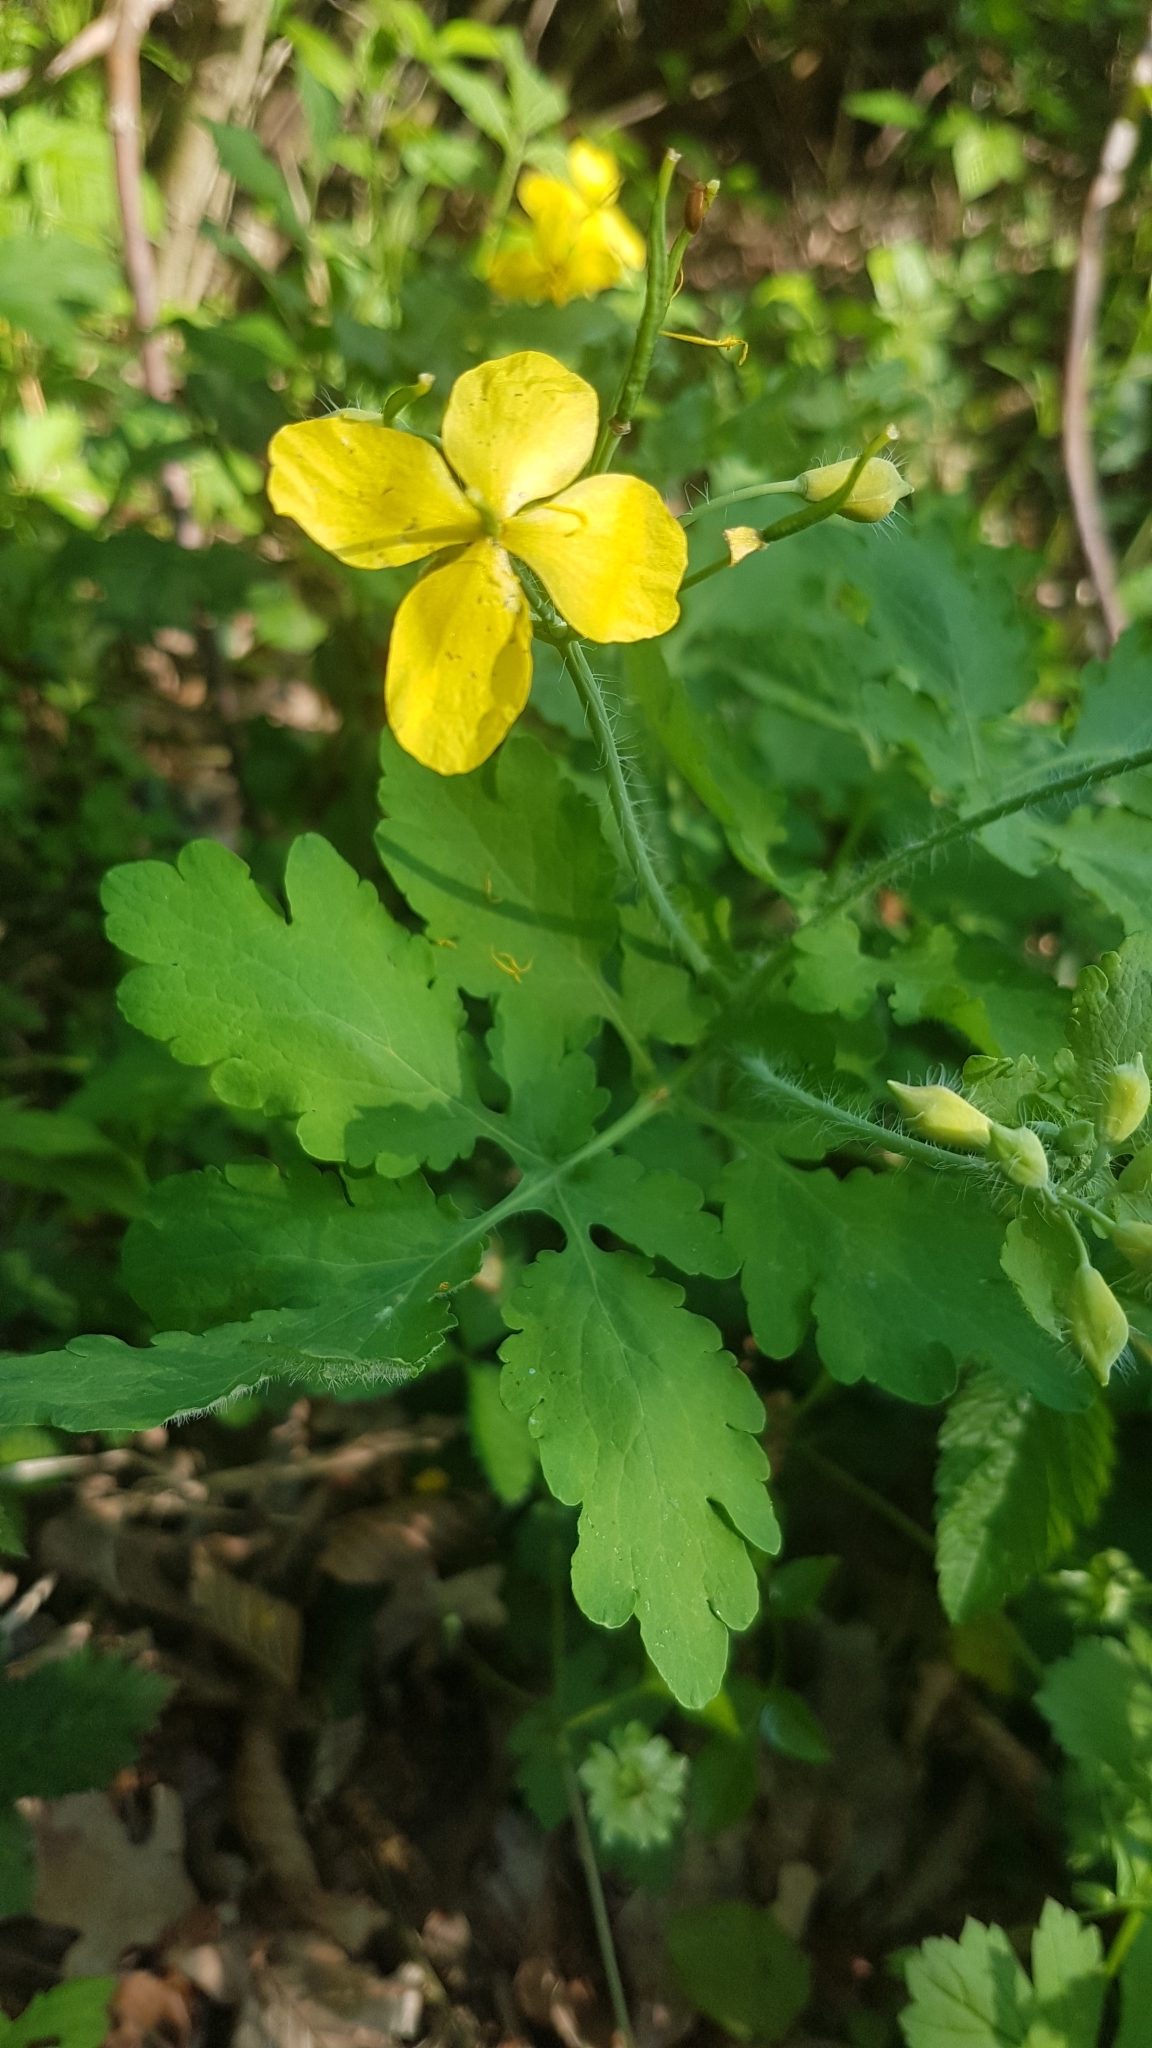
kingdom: Plantae
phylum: Tracheophyta
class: Magnoliopsida
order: Ranunculales
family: Papaveraceae
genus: Chelidonium
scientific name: Chelidonium majus
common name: Greater celandine
